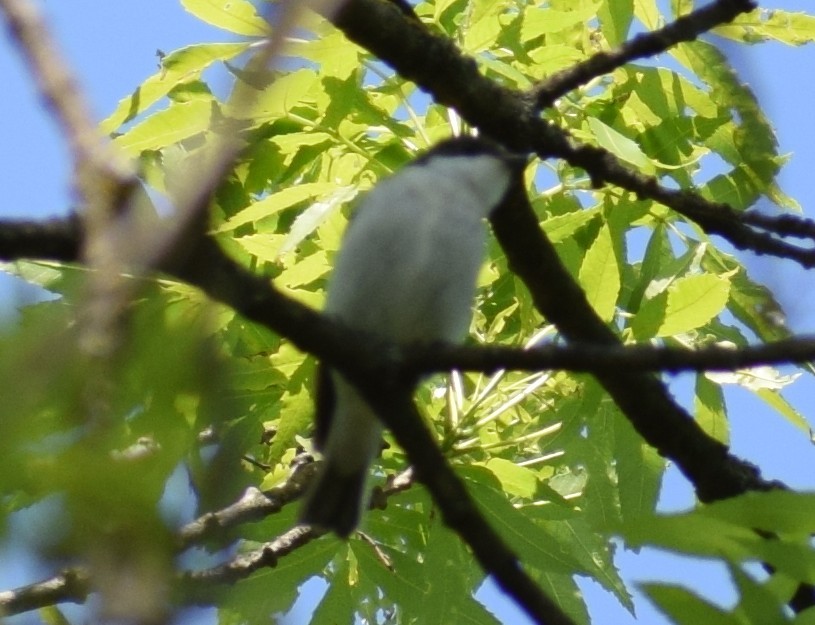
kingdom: Animalia
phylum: Chordata
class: Aves
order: Passeriformes
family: Muscicapidae
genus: Ficedula
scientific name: Ficedula hypoleuca
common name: European pied flycatcher
